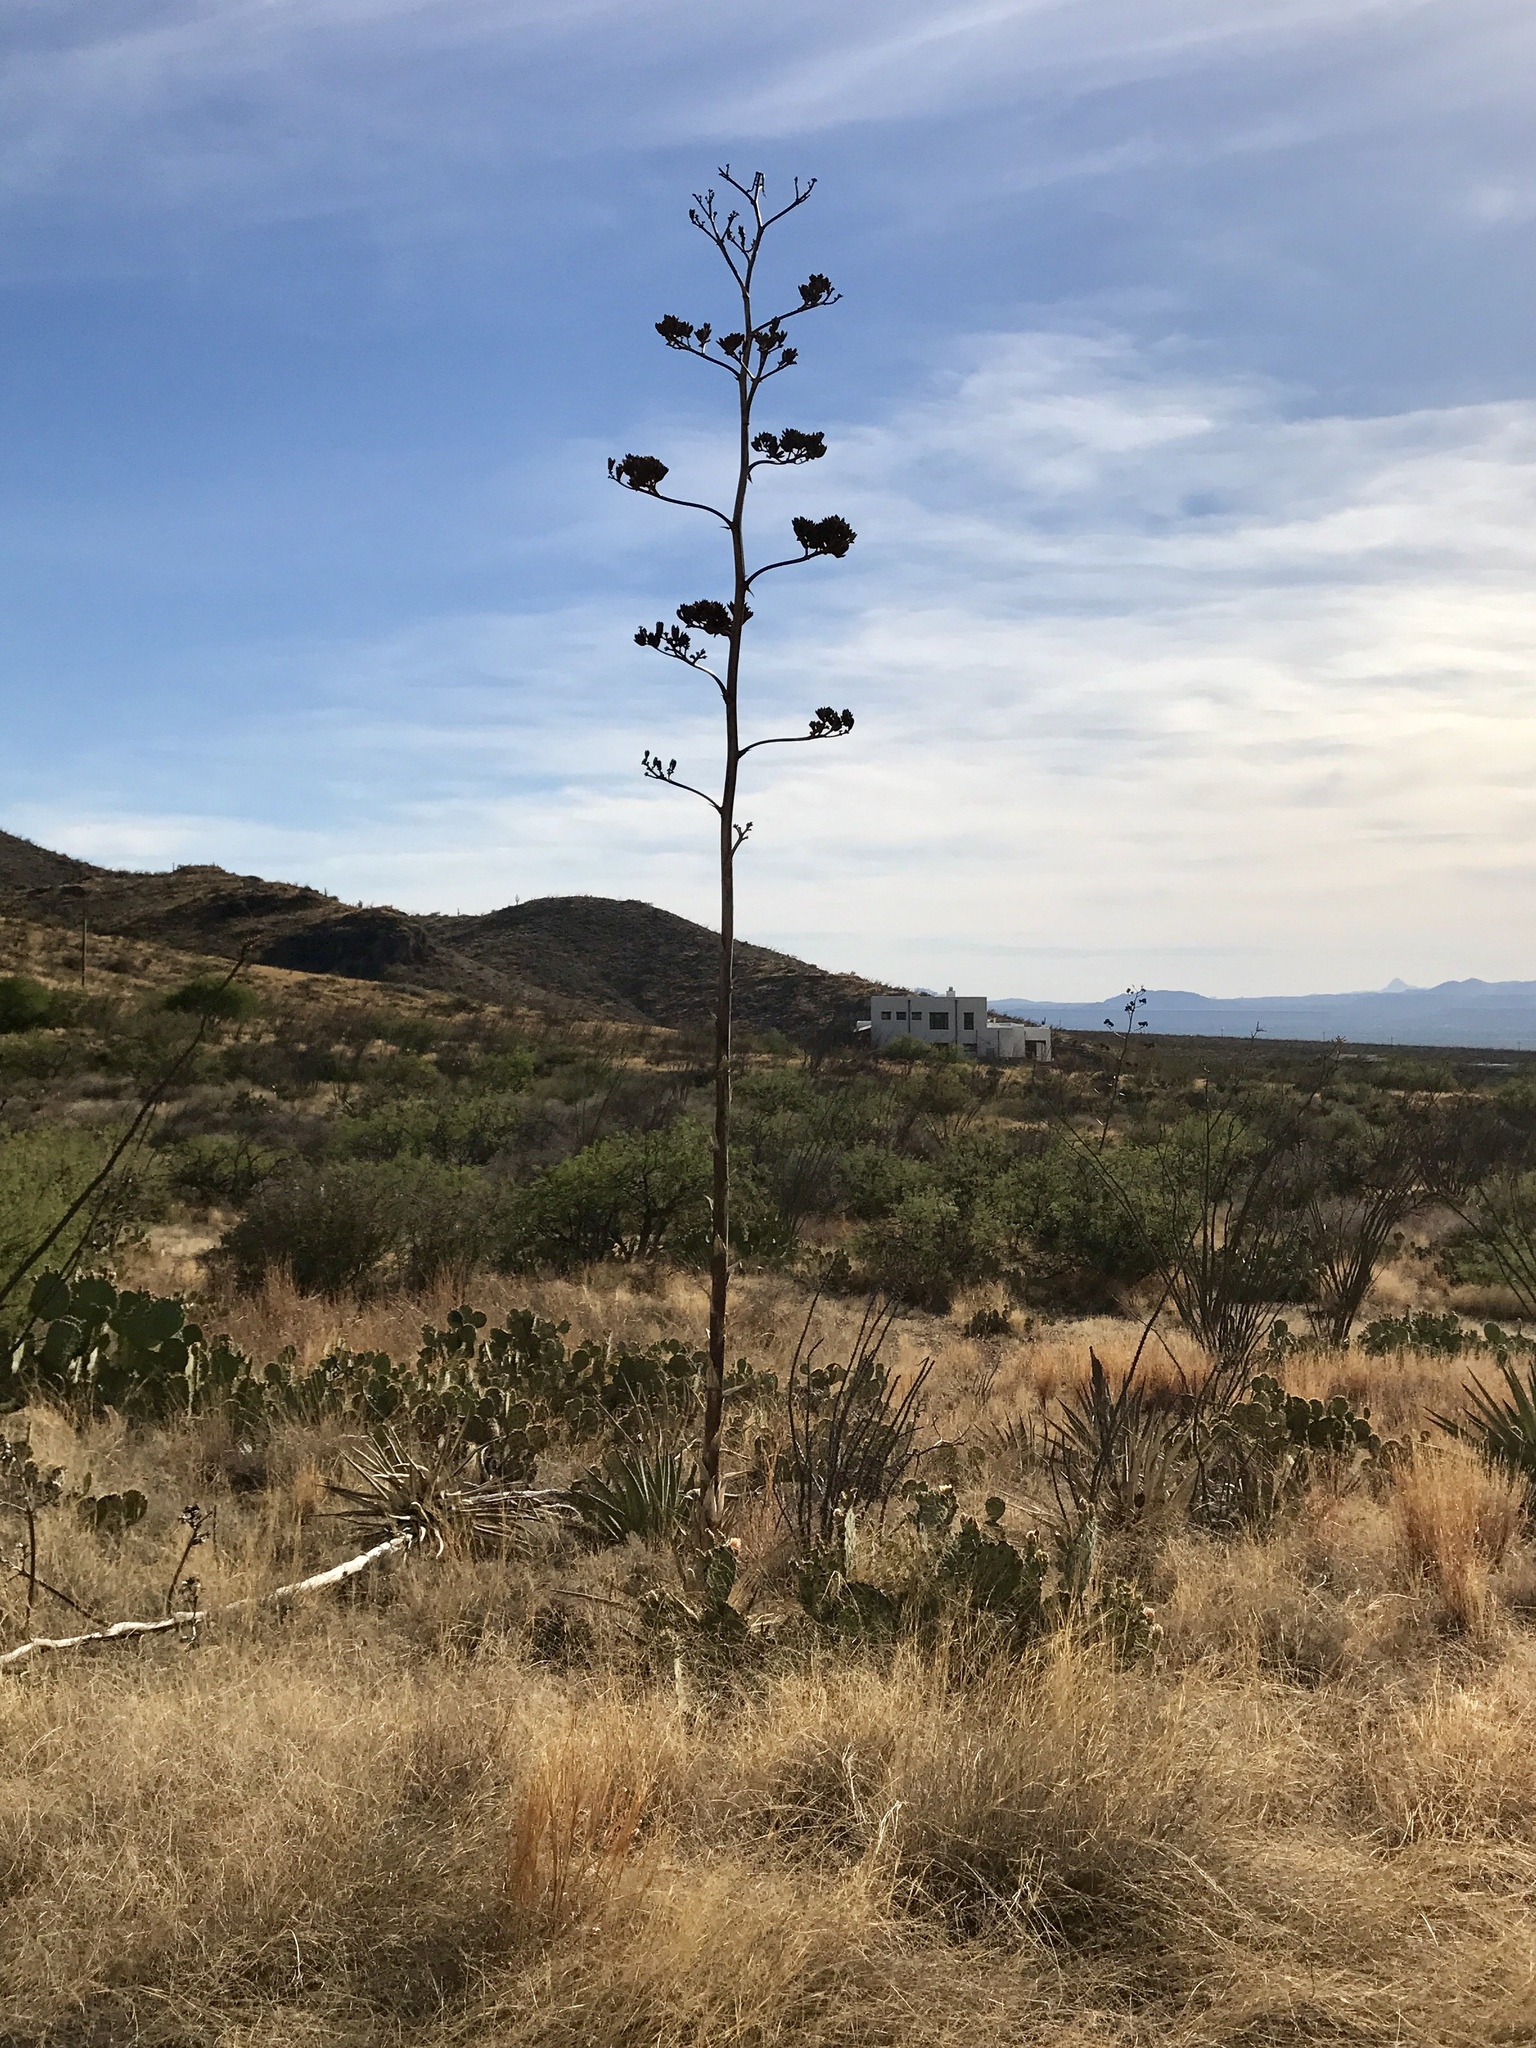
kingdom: Plantae
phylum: Tracheophyta
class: Liliopsida
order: Asparagales
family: Asparagaceae
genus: Agave
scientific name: Agave palmeri
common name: Palmer agave
